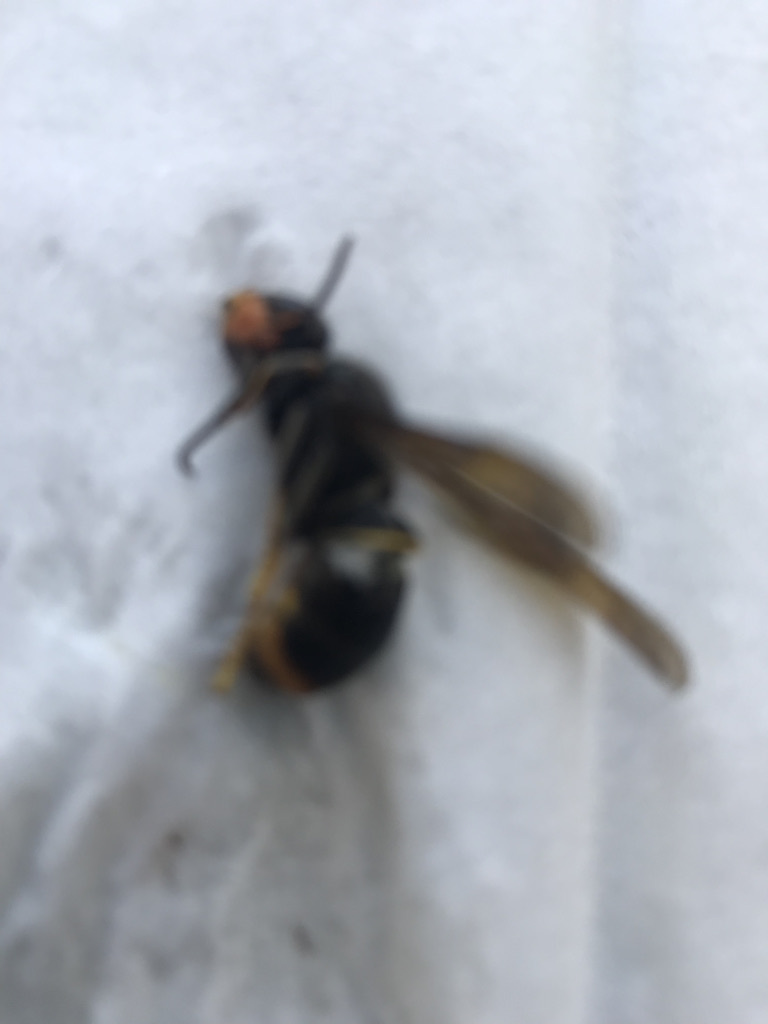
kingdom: Animalia
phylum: Arthropoda
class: Insecta
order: Hymenoptera
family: Vespidae
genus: Vespa
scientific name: Vespa velutina
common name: Asian hornet
